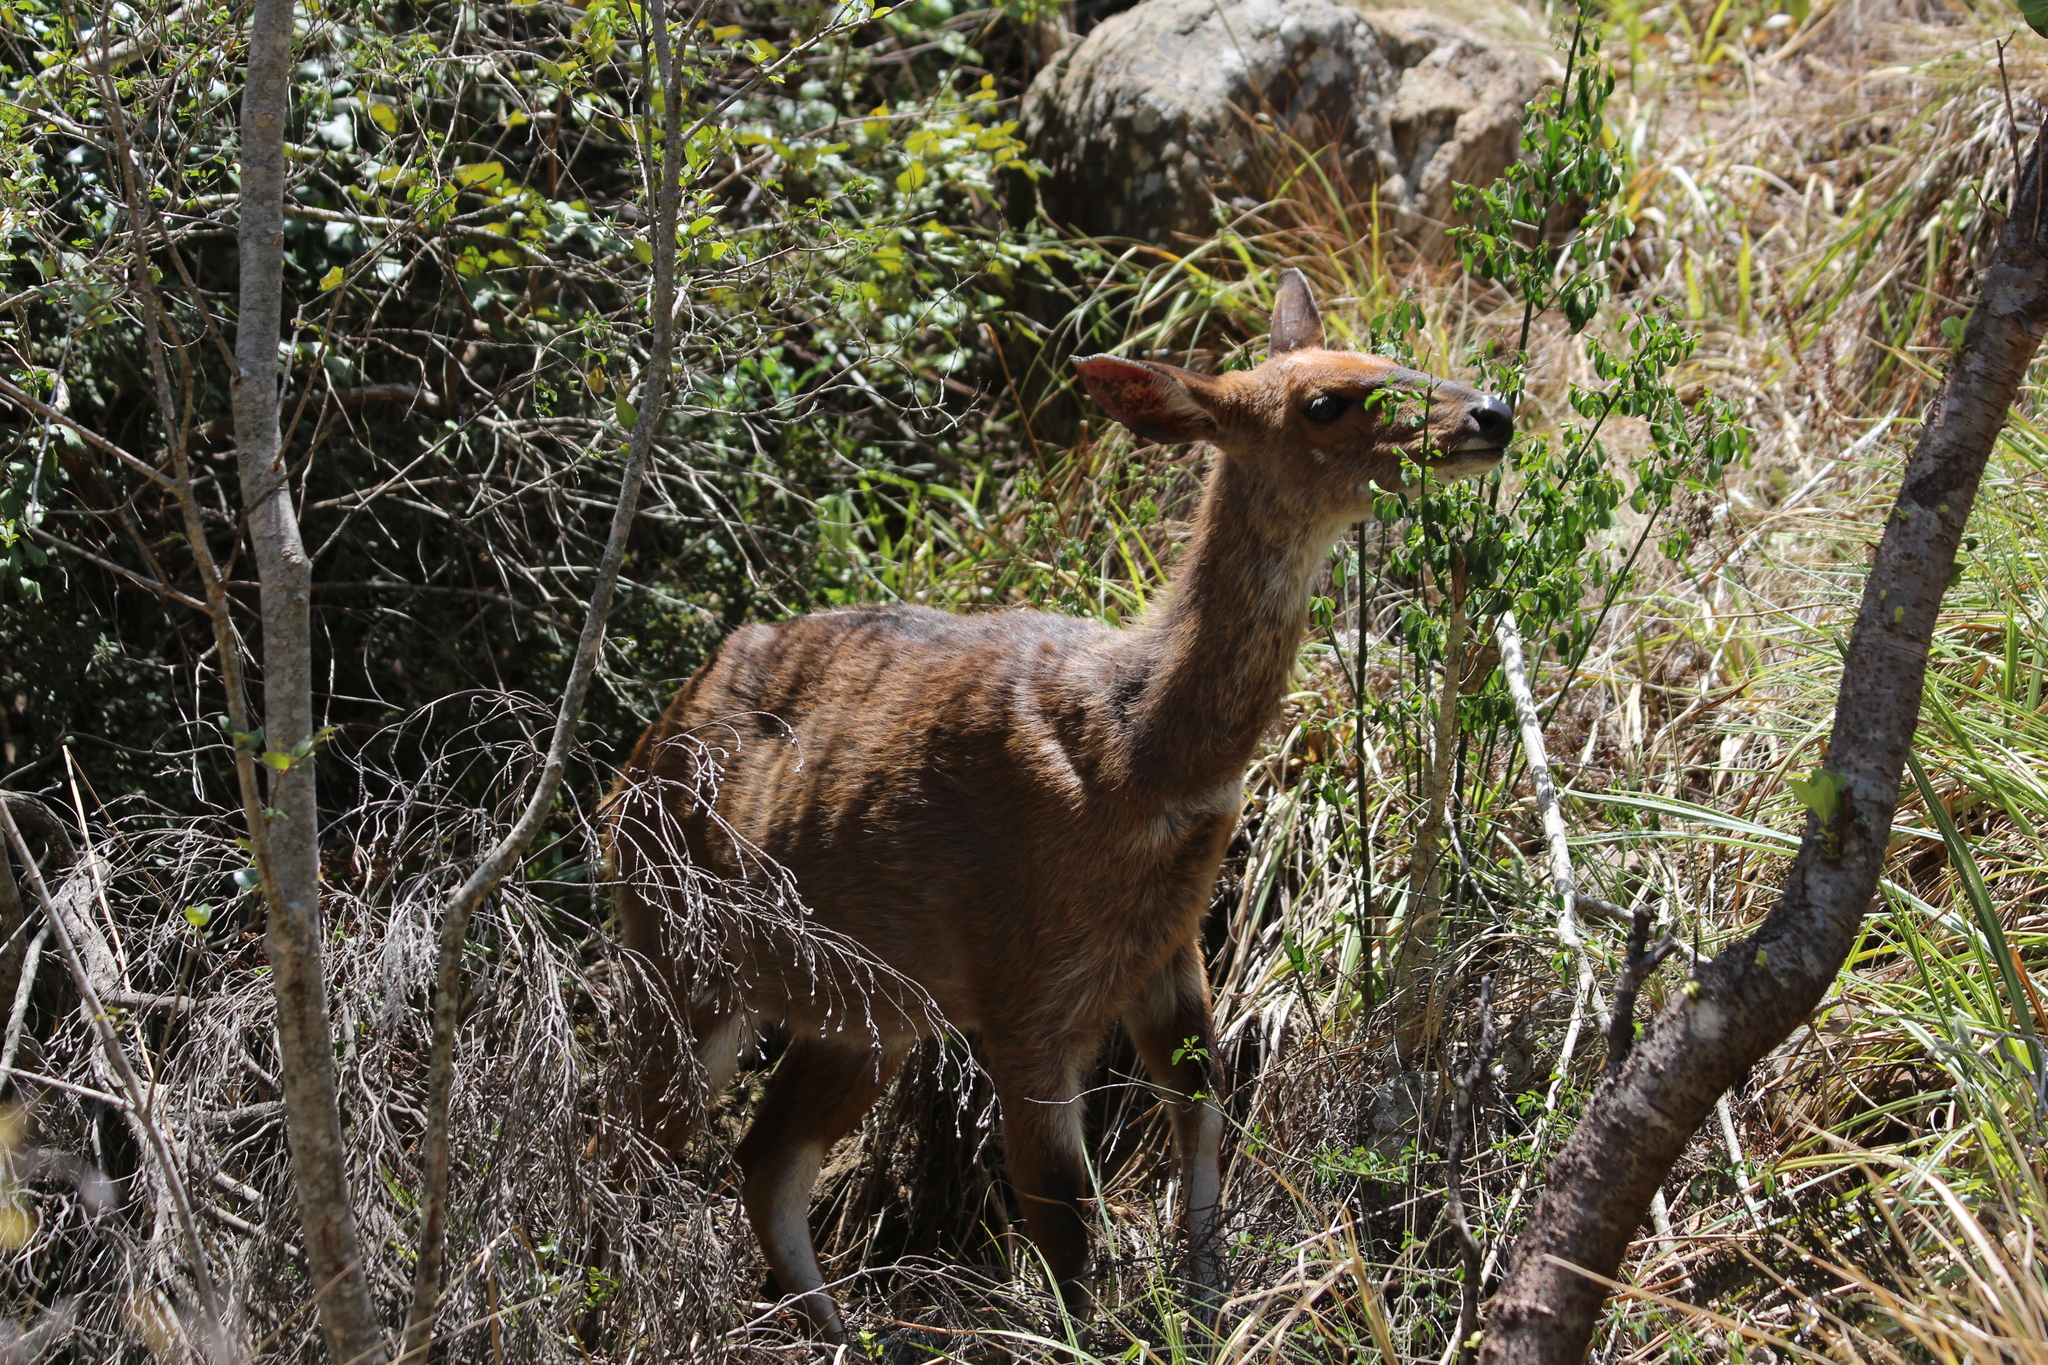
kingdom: Animalia
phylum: Chordata
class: Mammalia
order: Artiodactyla
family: Bovidae
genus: Tragelaphus
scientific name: Tragelaphus scriptus
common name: Bushbuck
